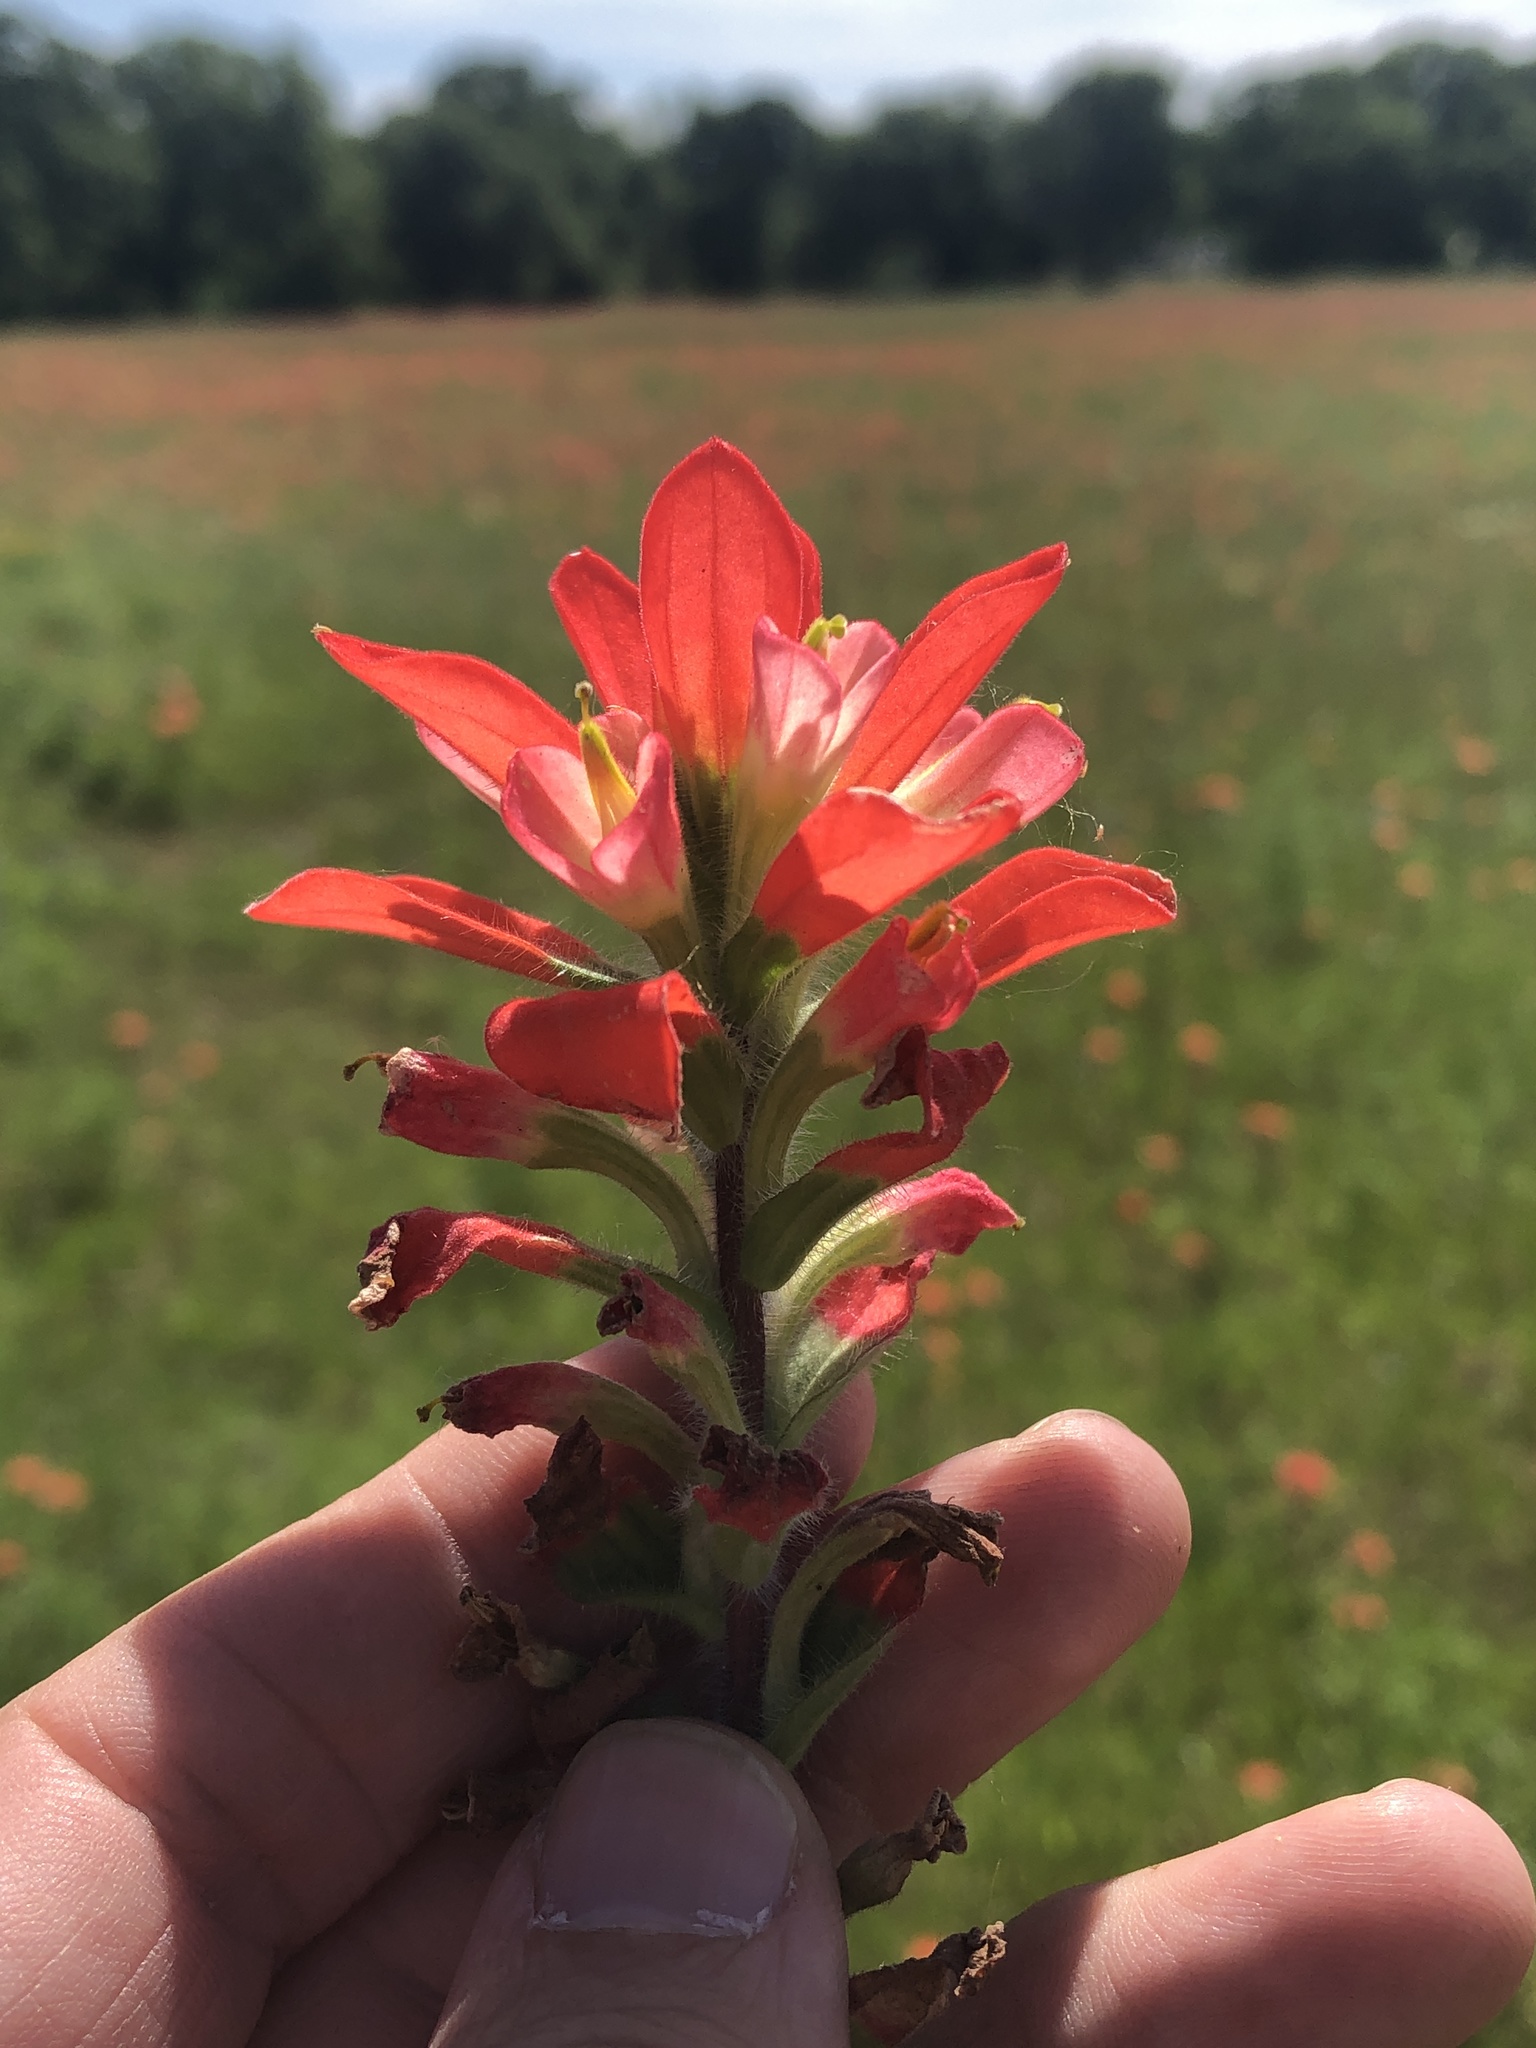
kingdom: Plantae
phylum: Tracheophyta
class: Magnoliopsida
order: Lamiales
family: Orobanchaceae
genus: Castilleja
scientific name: Castilleja indivisa
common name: Texas paintbrush
